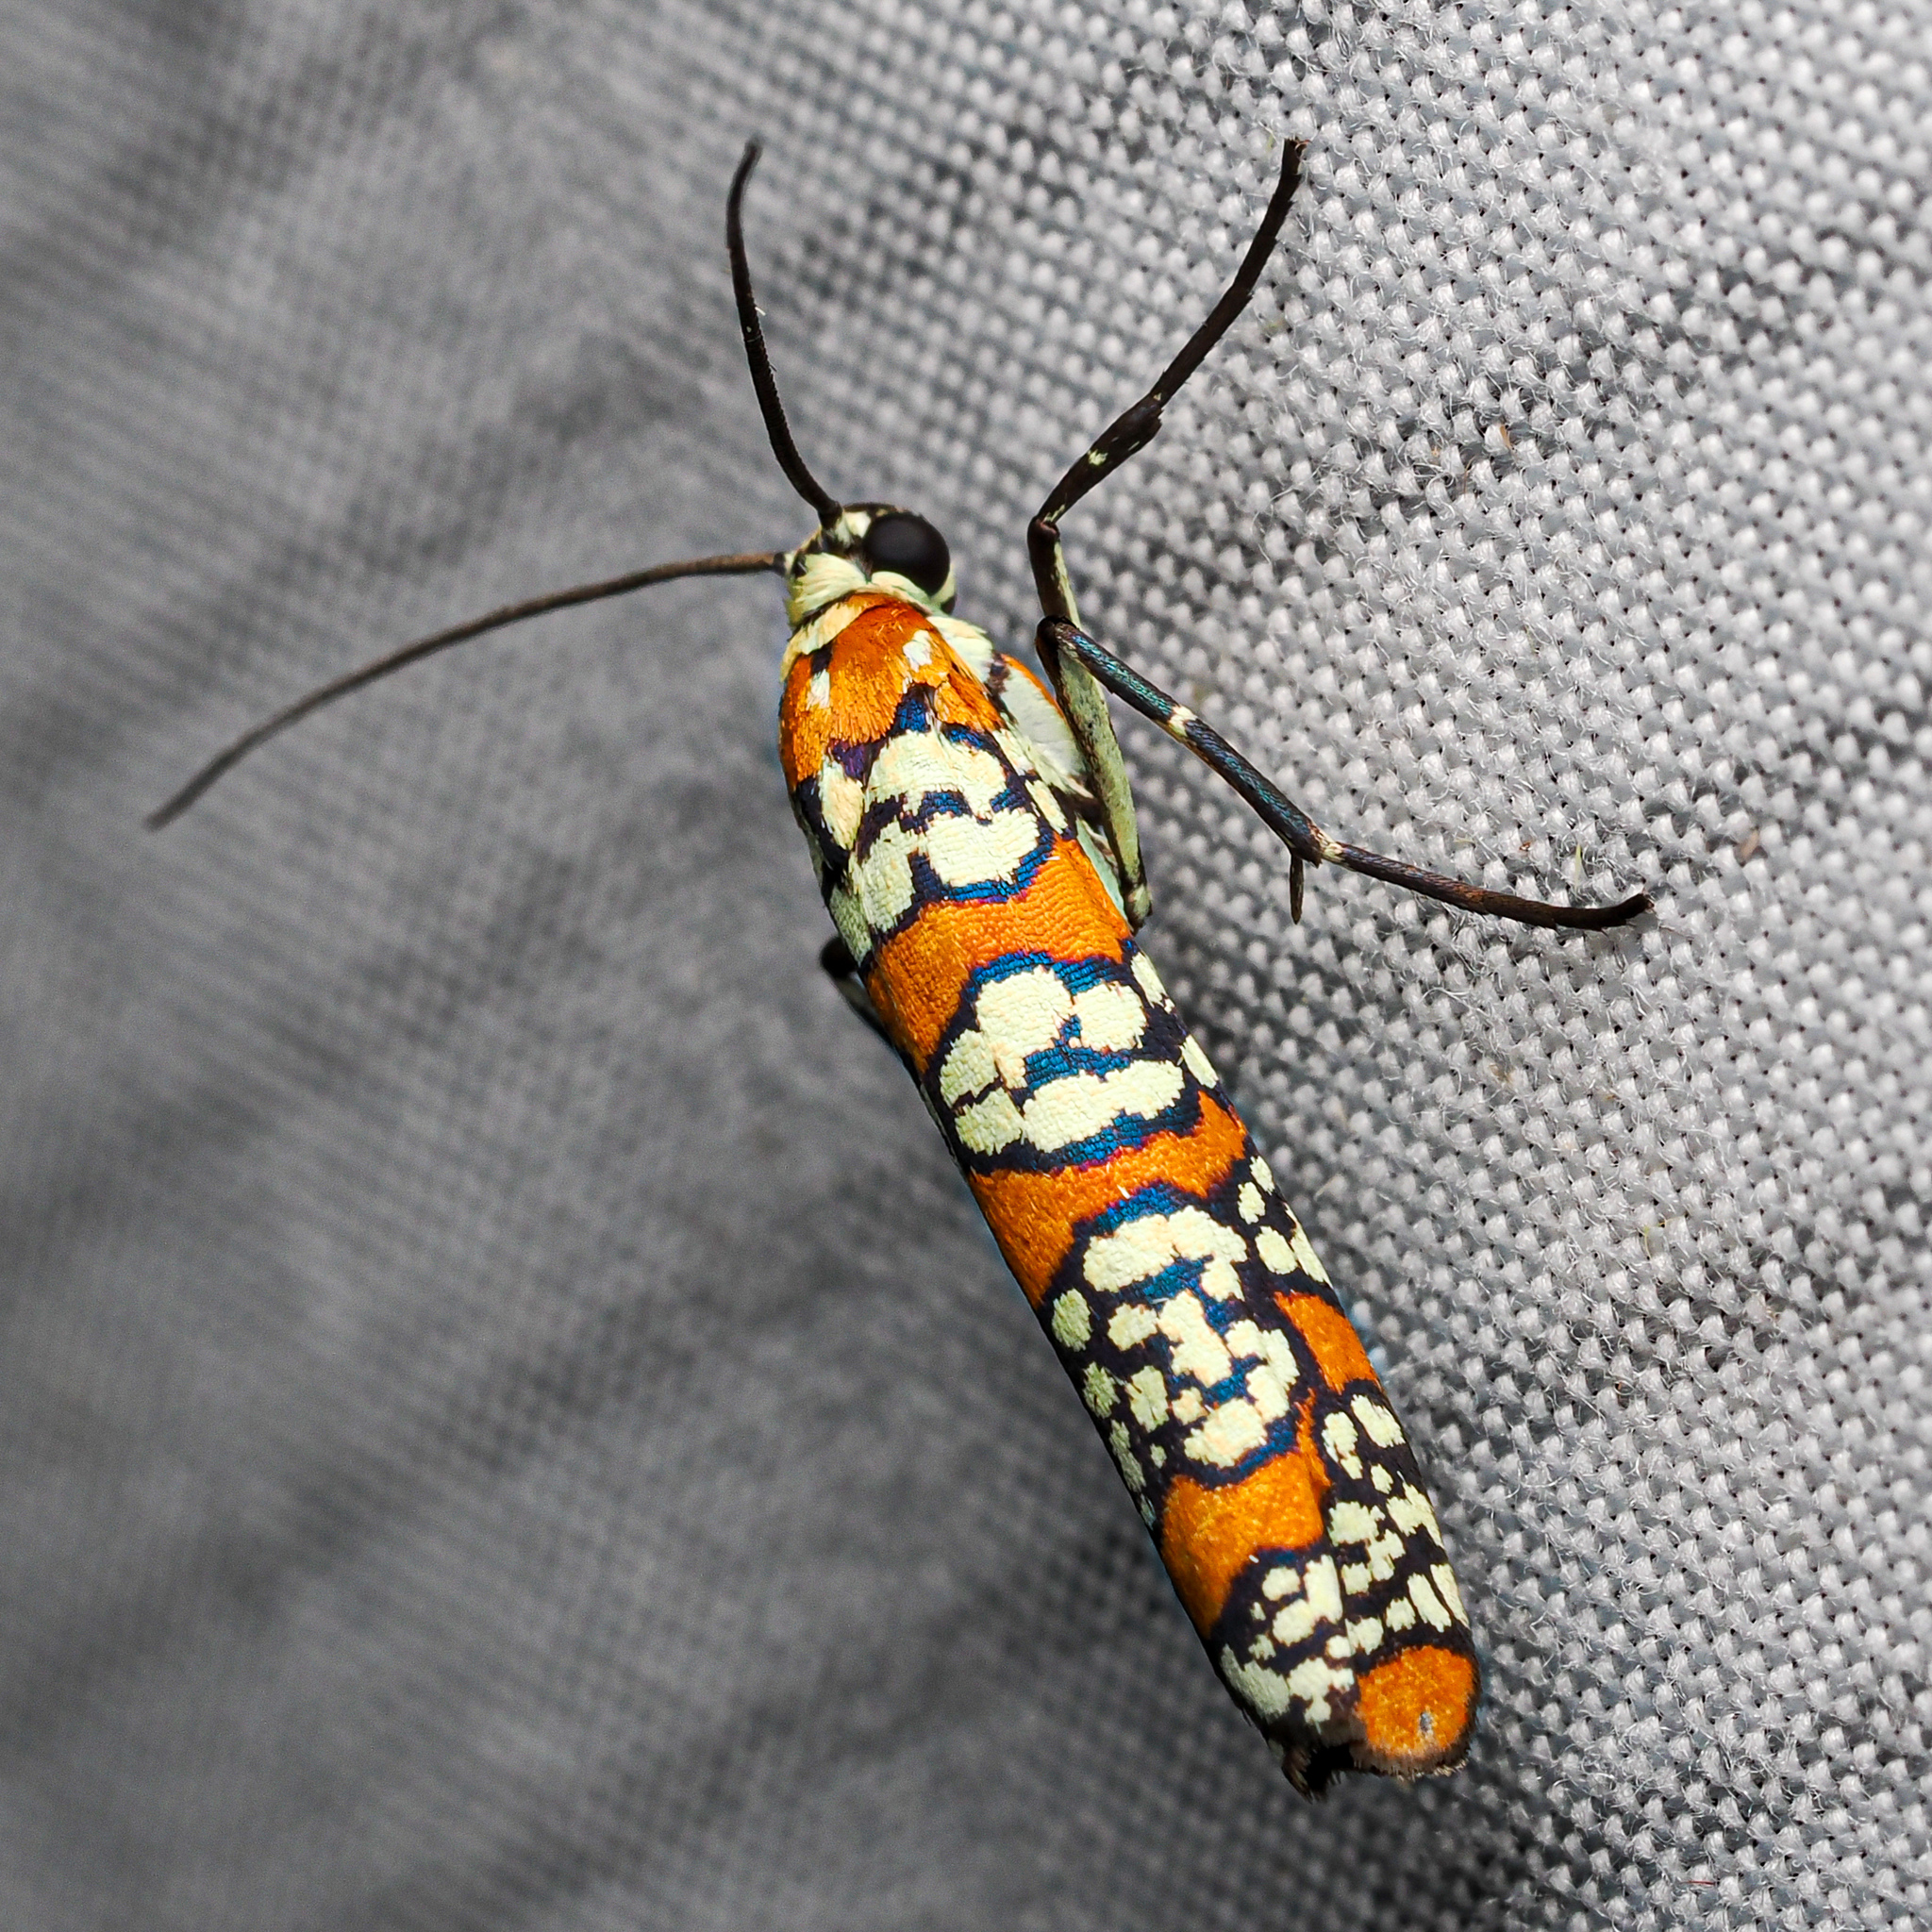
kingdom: Animalia
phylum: Arthropoda
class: Insecta
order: Lepidoptera
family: Attevidae
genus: Atteva
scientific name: Atteva punctella
